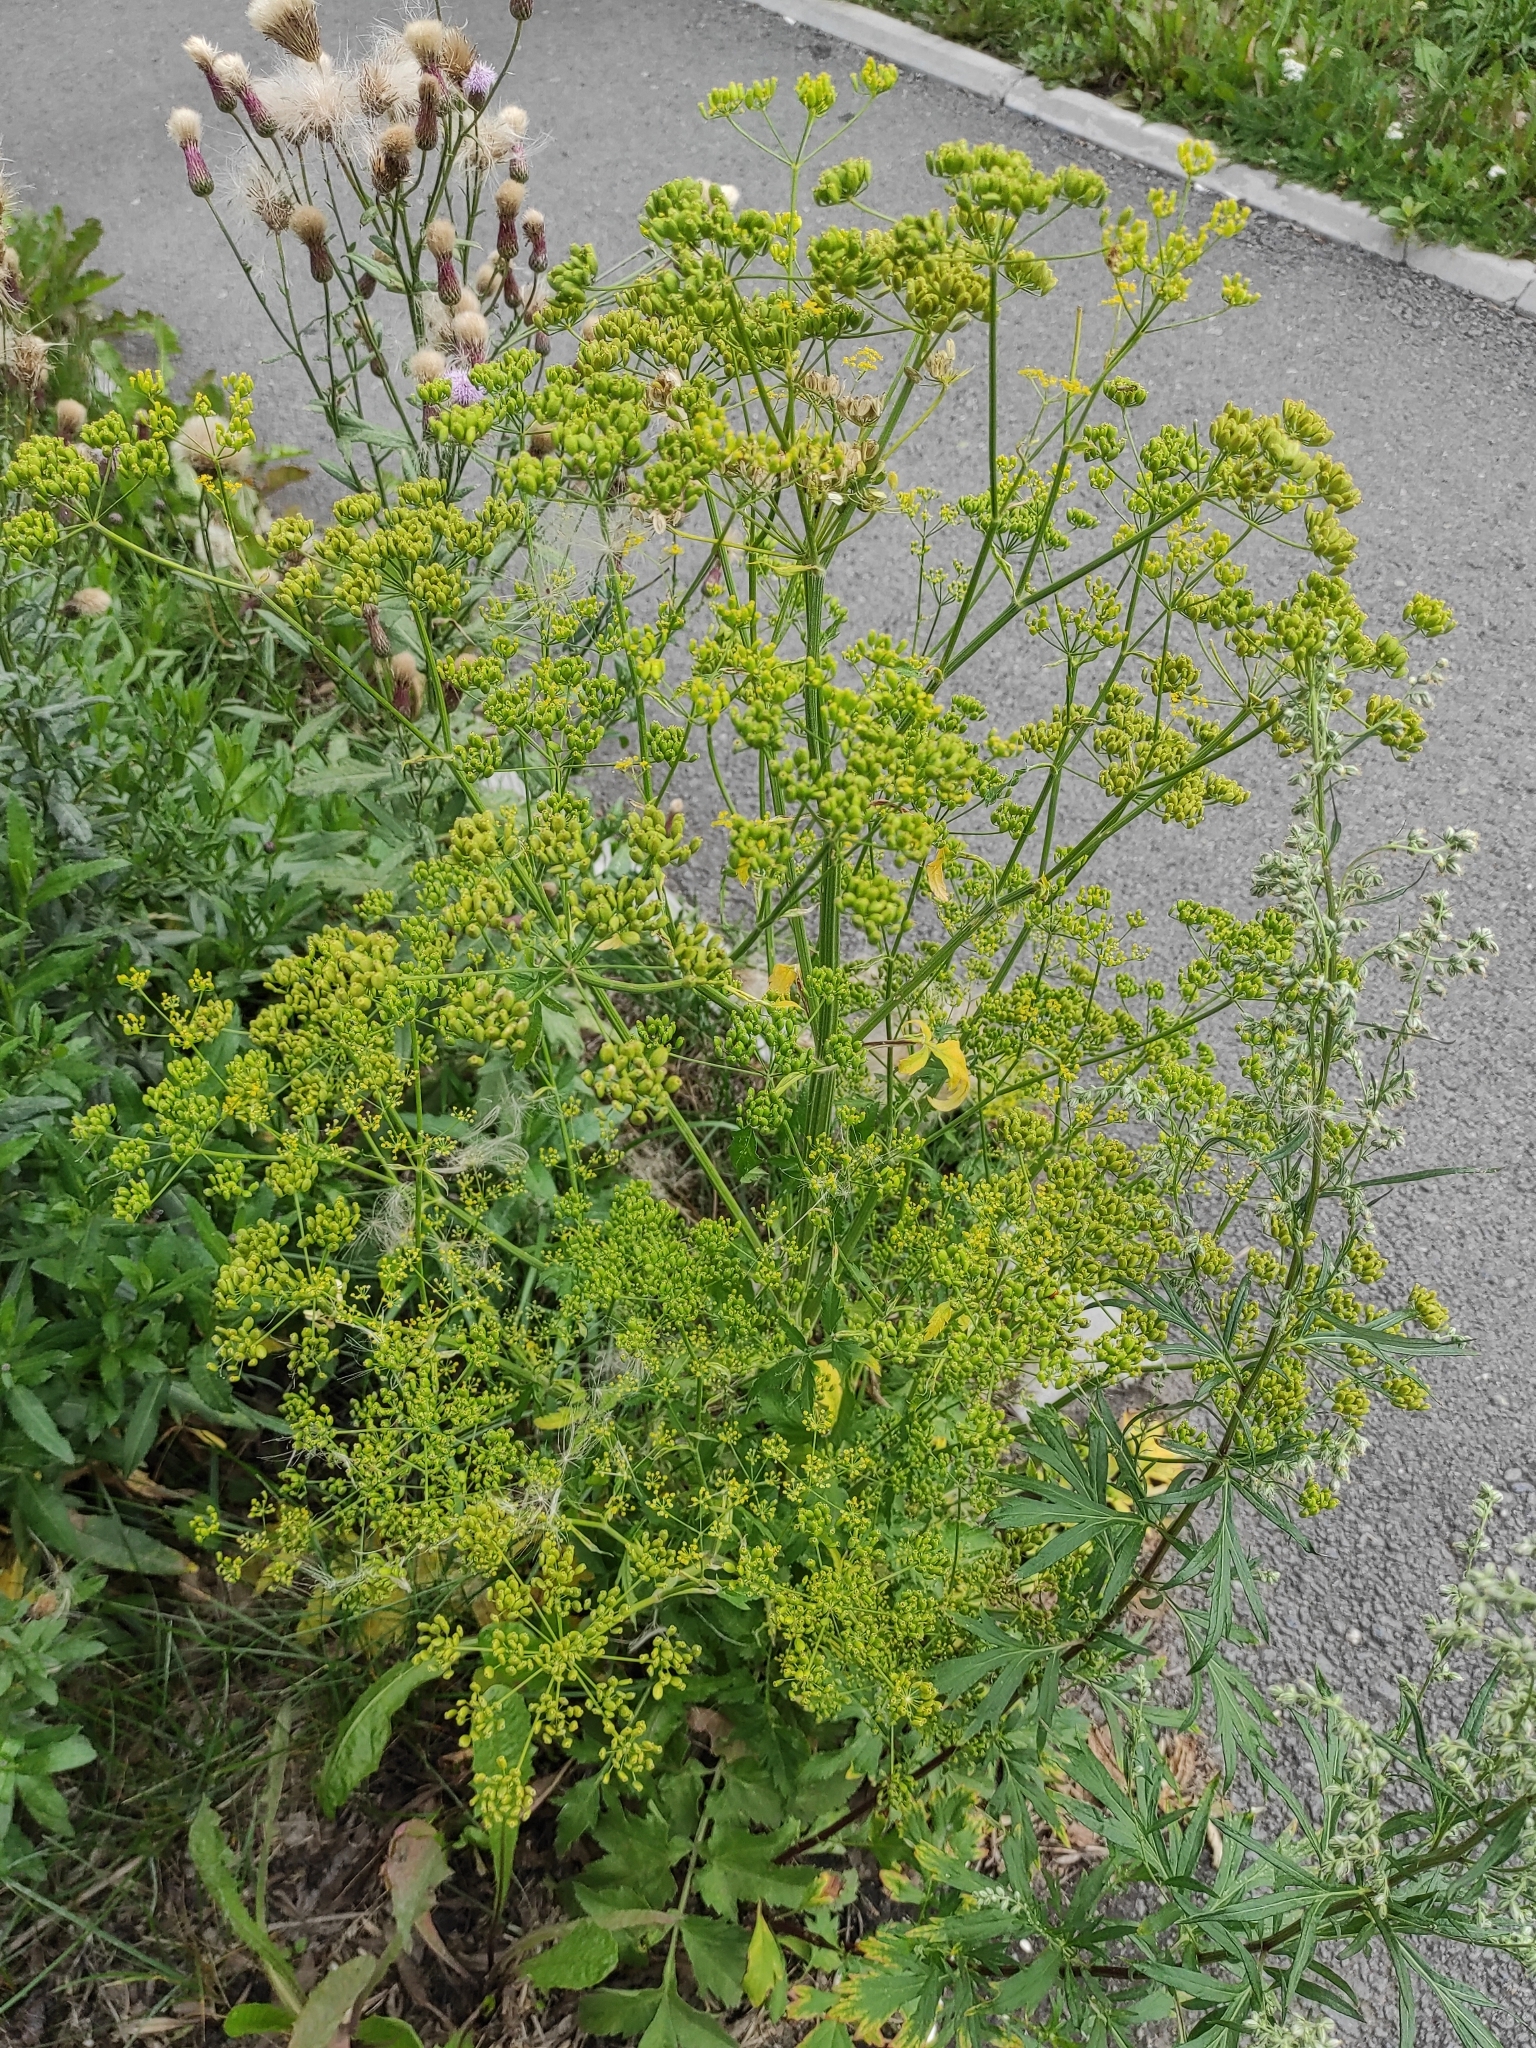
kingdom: Plantae
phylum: Tracheophyta
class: Magnoliopsida
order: Apiales
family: Apiaceae
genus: Pastinaca
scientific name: Pastinaca sativa
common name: Wild parsnip
